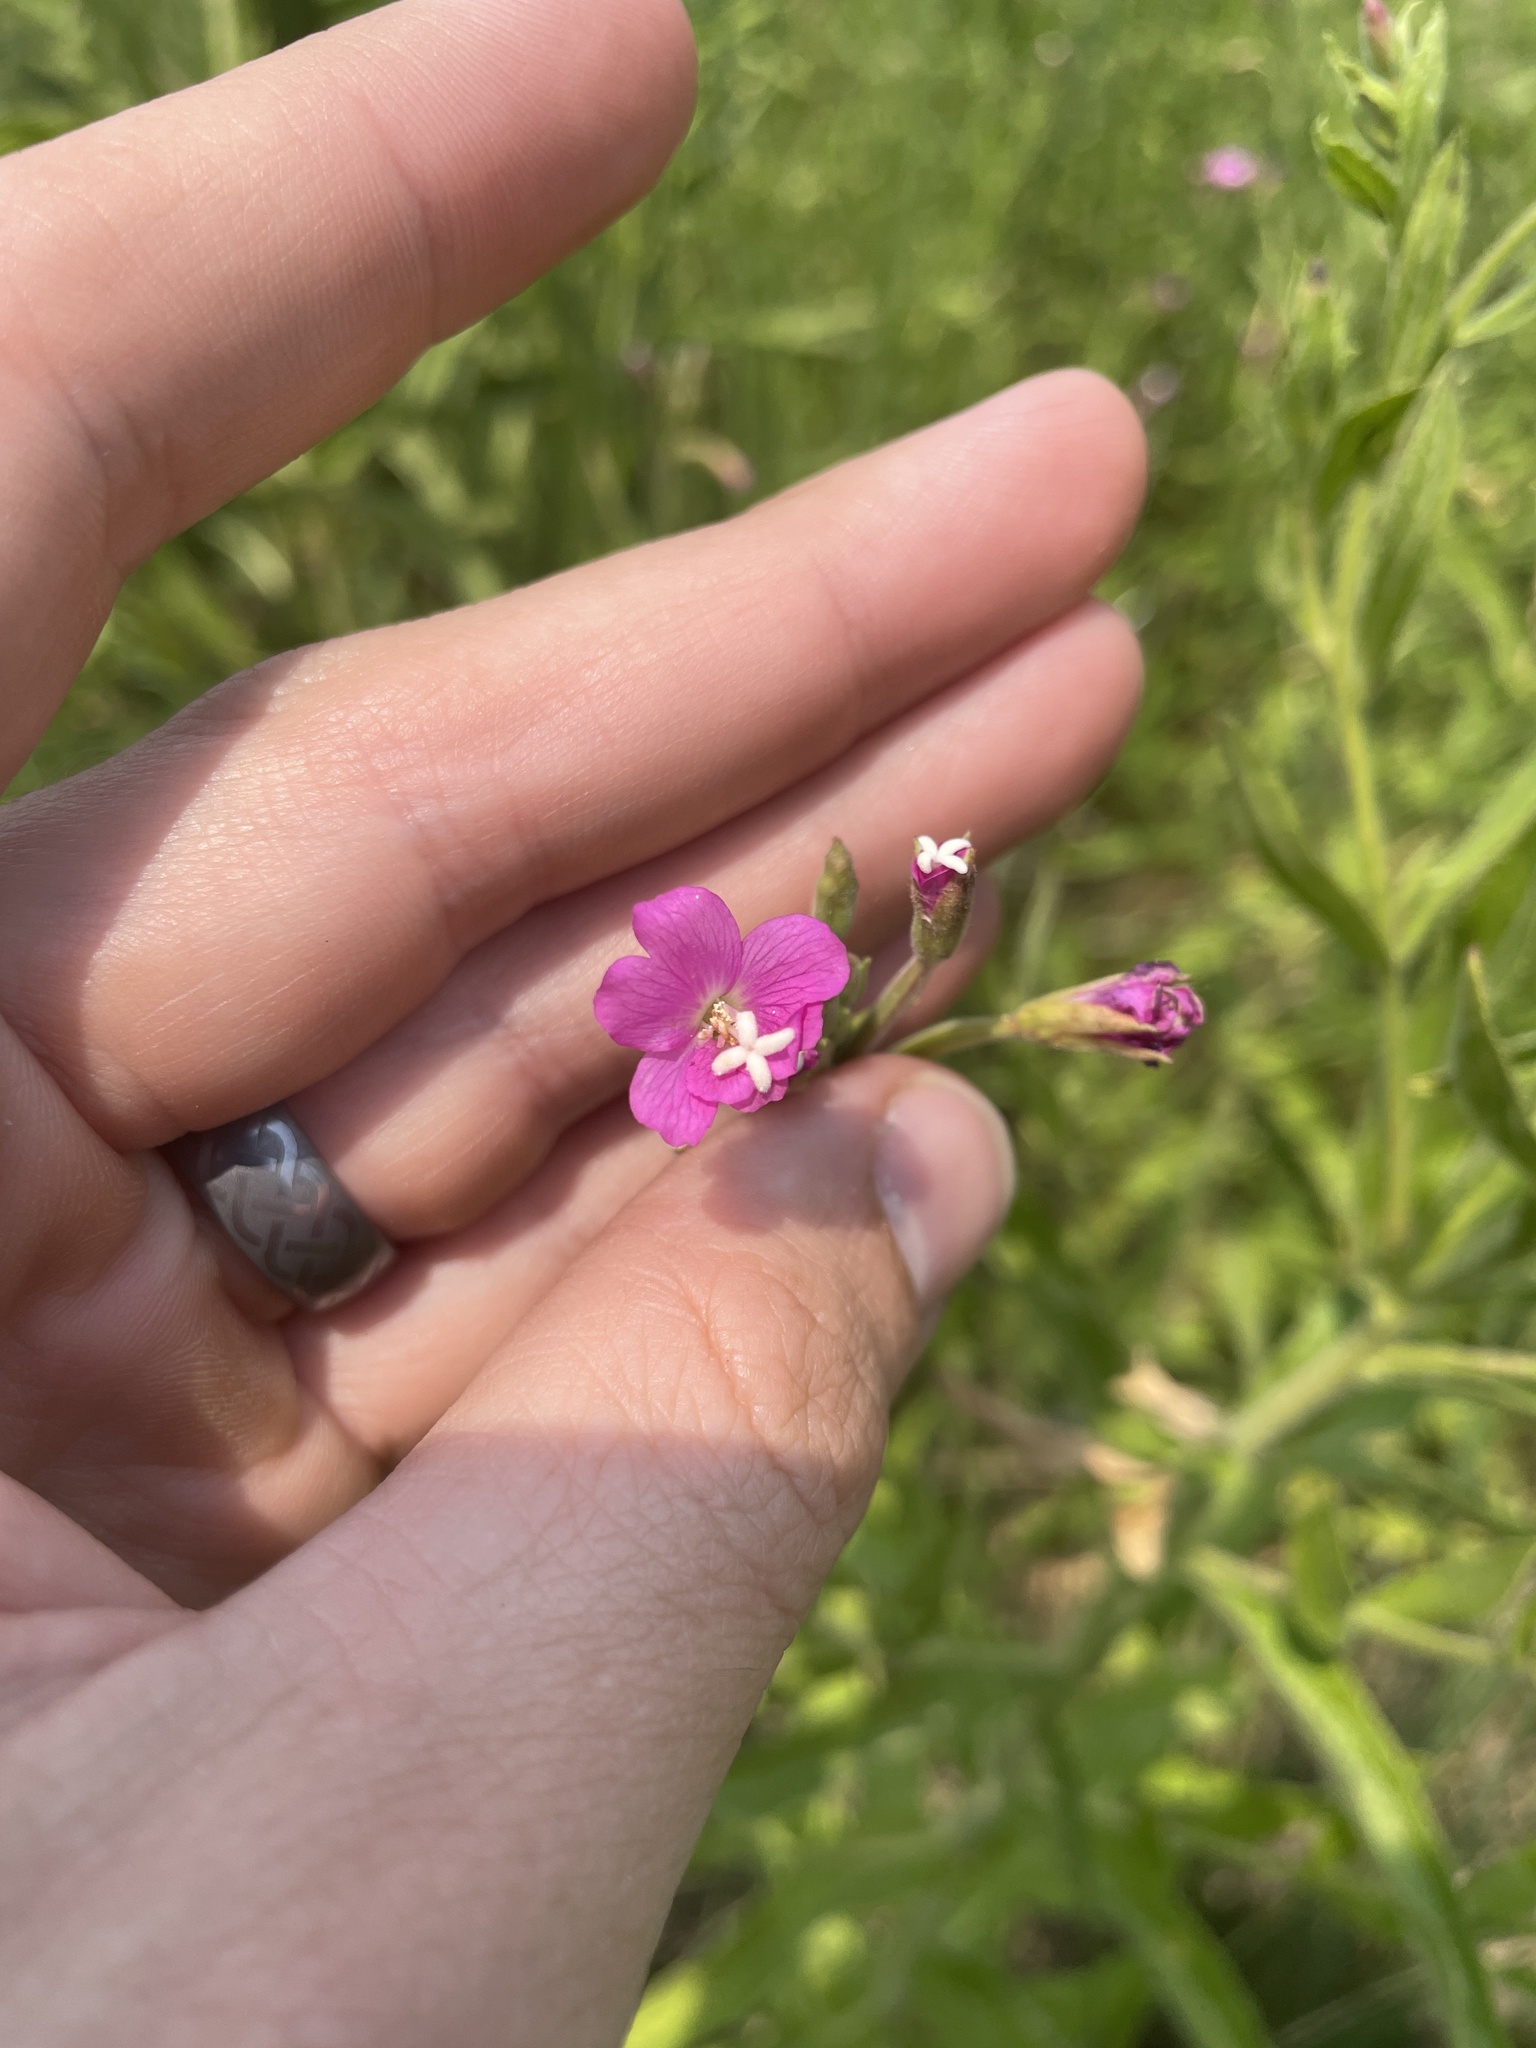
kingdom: Plantae
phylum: Tracheophyta
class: Magnoliopsida
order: Myrtales
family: Onagraceae
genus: Epilobium
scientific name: Epilobium hirsutum
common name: Great willowherb
